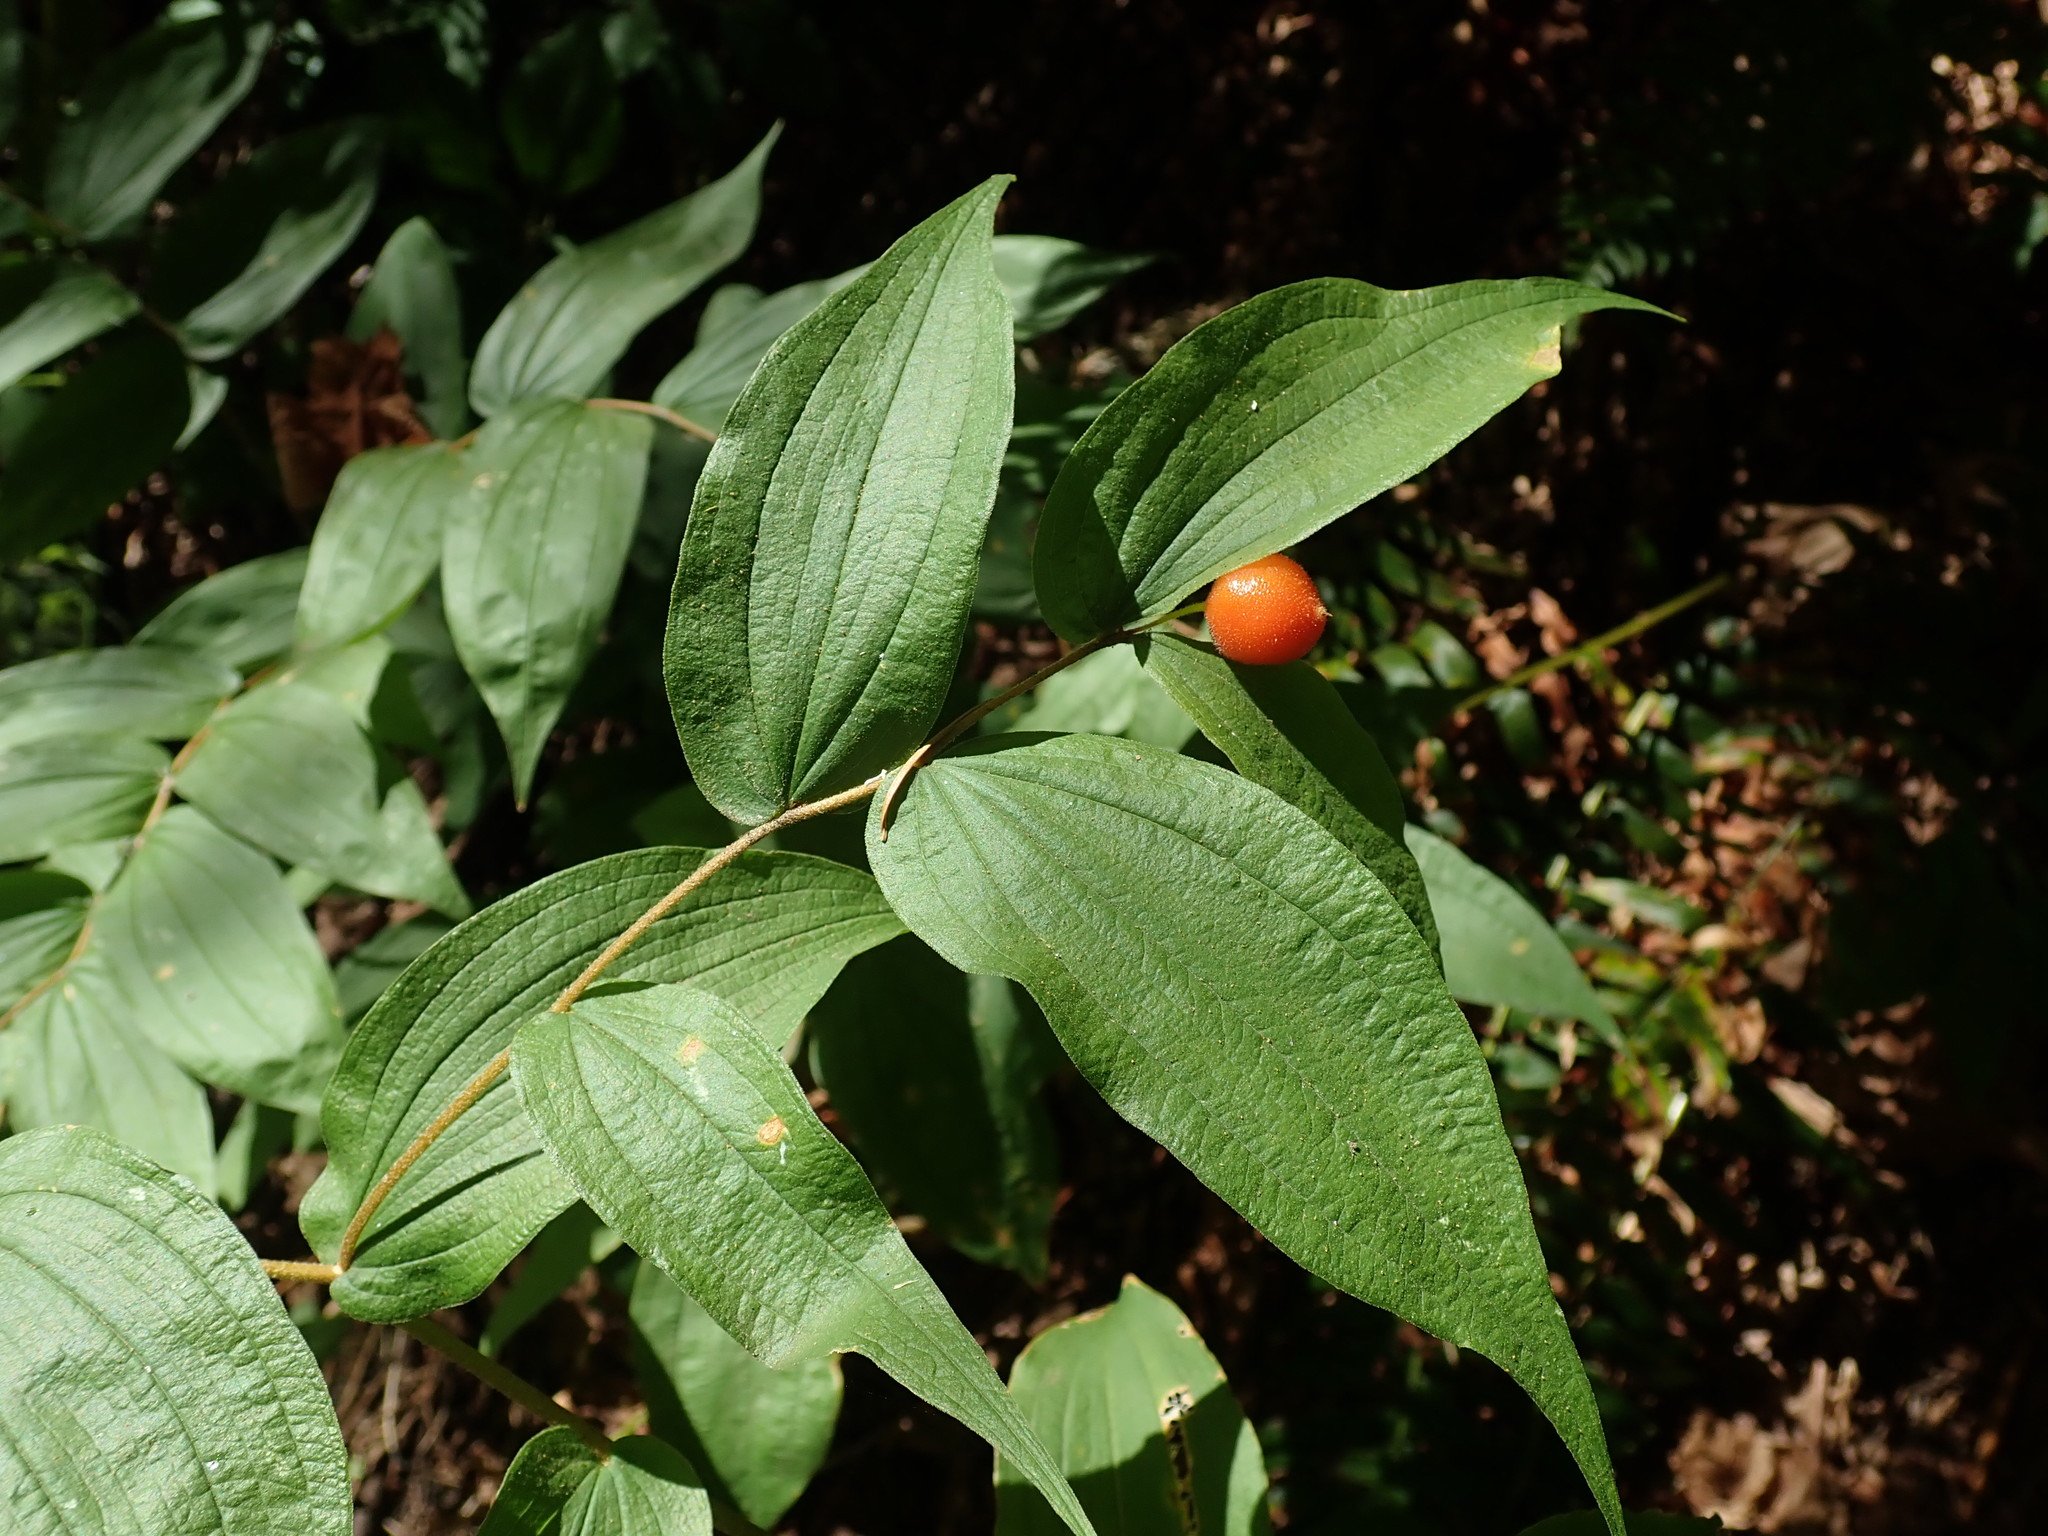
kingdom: Plantae
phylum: Tracheophyta
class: Liliopsida
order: Liliales
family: Liliaceae
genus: Prosartes
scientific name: Prosartes hookeri
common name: Fairy-bells
